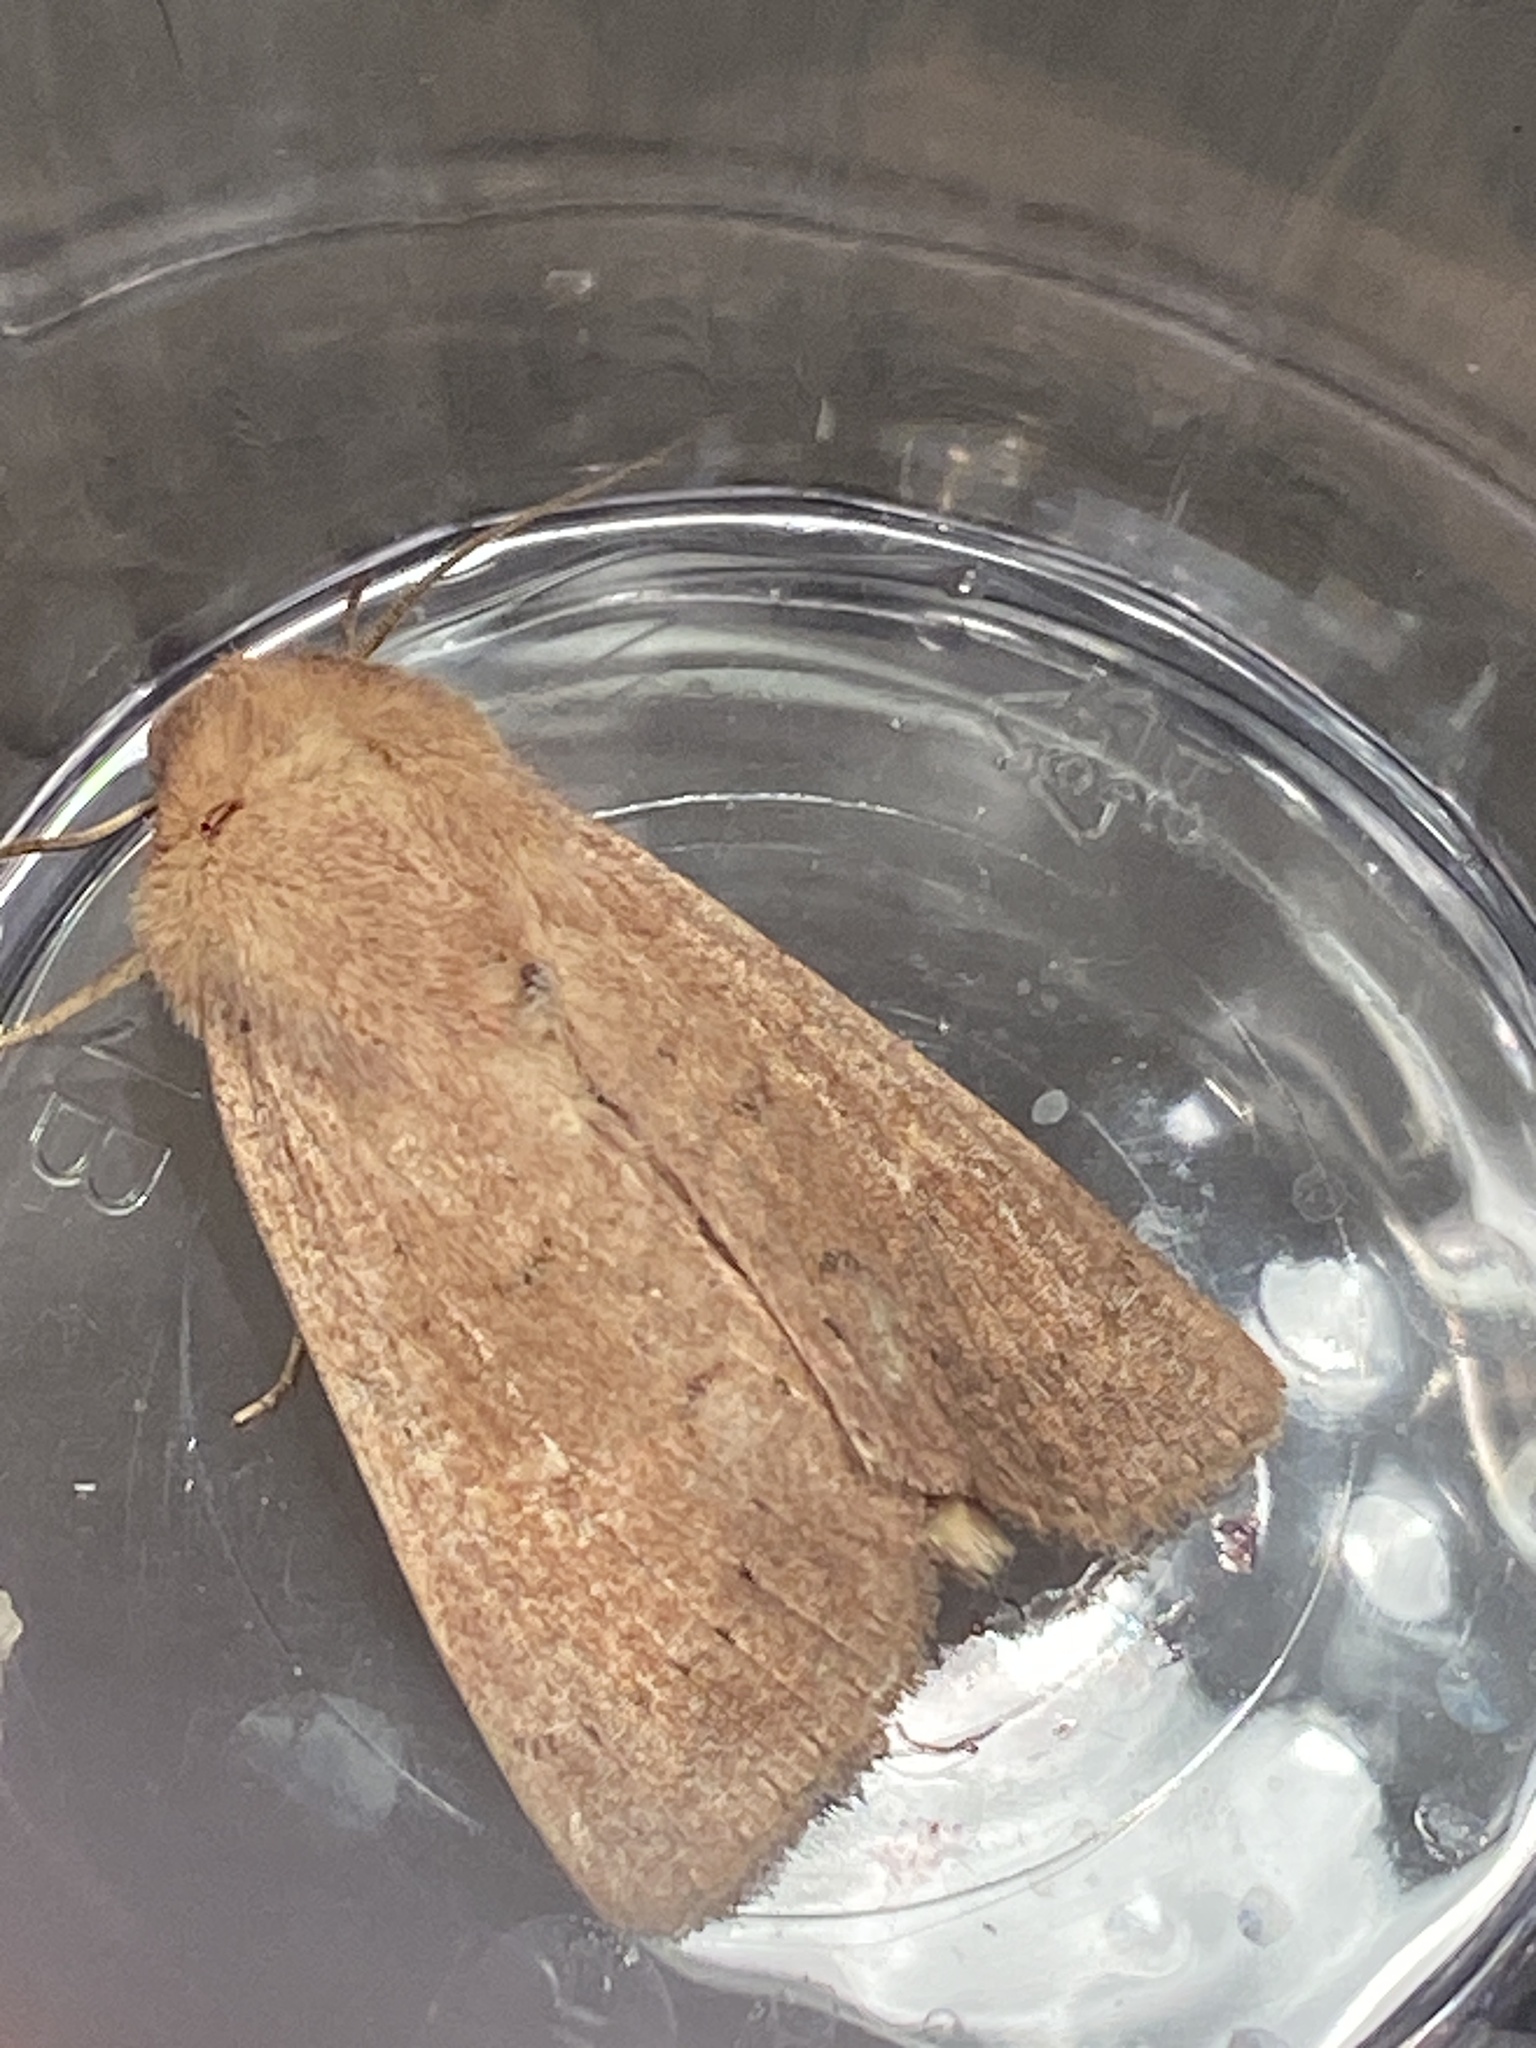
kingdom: Animalia
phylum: Arthropoda
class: Insecta
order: Lepidoptera
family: Noctuidae
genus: Mythimna
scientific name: Mythimna ferrago
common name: Clay
